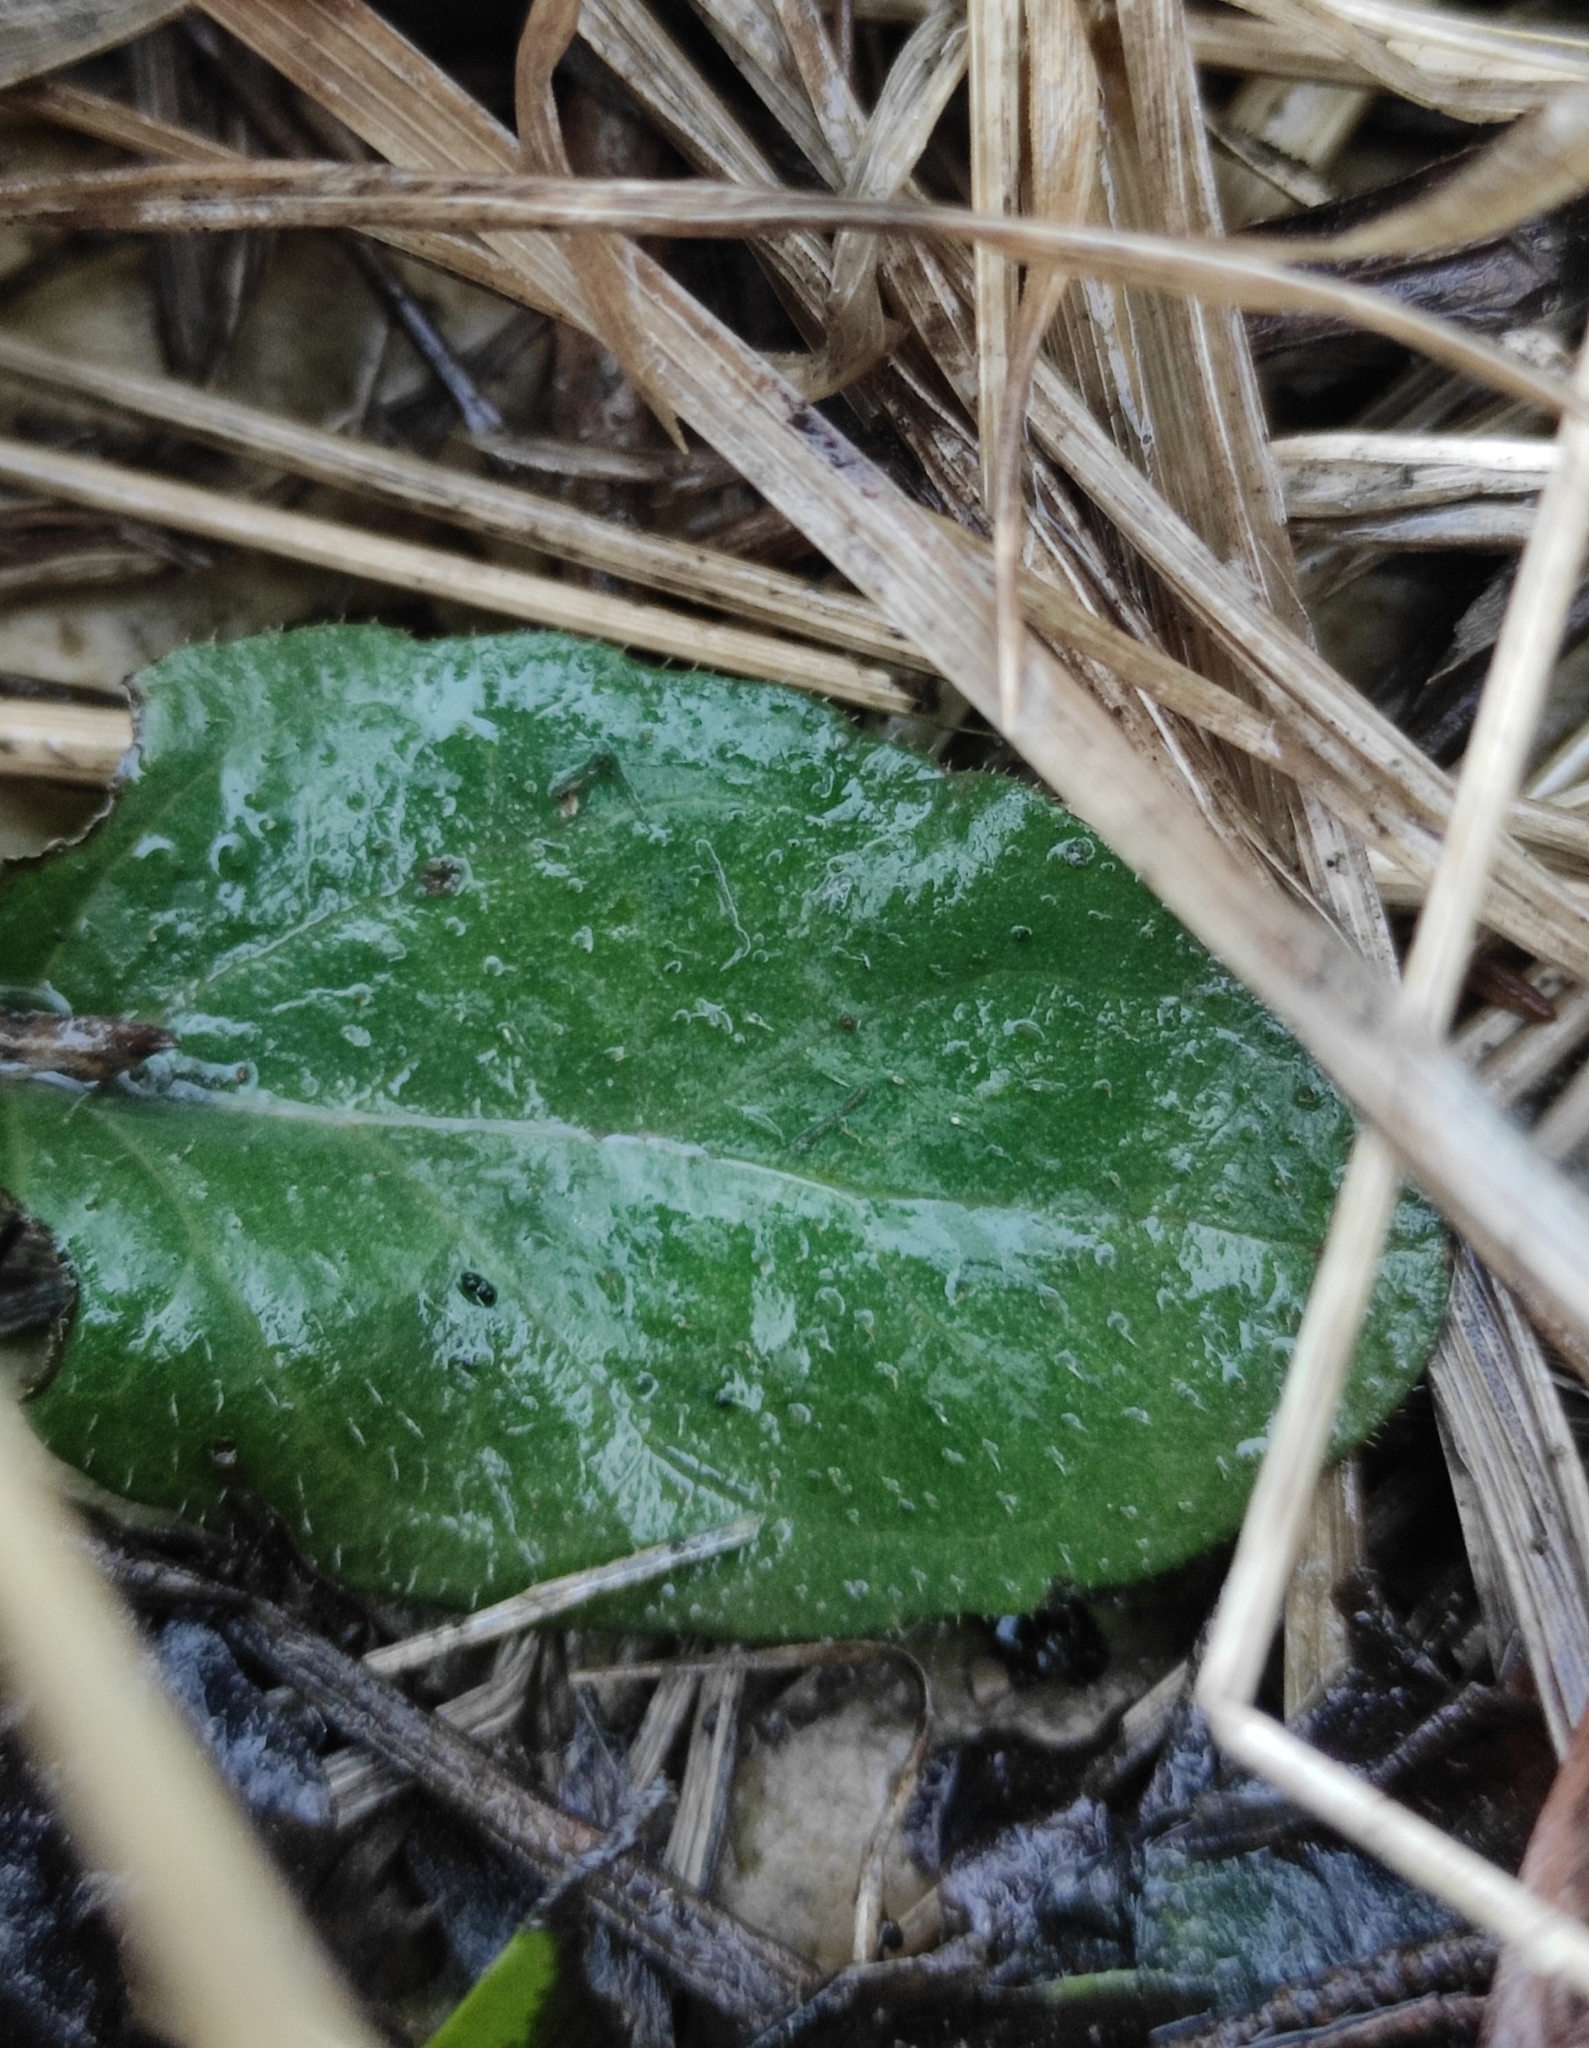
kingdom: Plantae
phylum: Tracheophyta
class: Magnoliopsida
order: Lamiales
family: Lamiaceae
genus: Prunella
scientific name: Prunella vulgaris
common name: Heal-all
